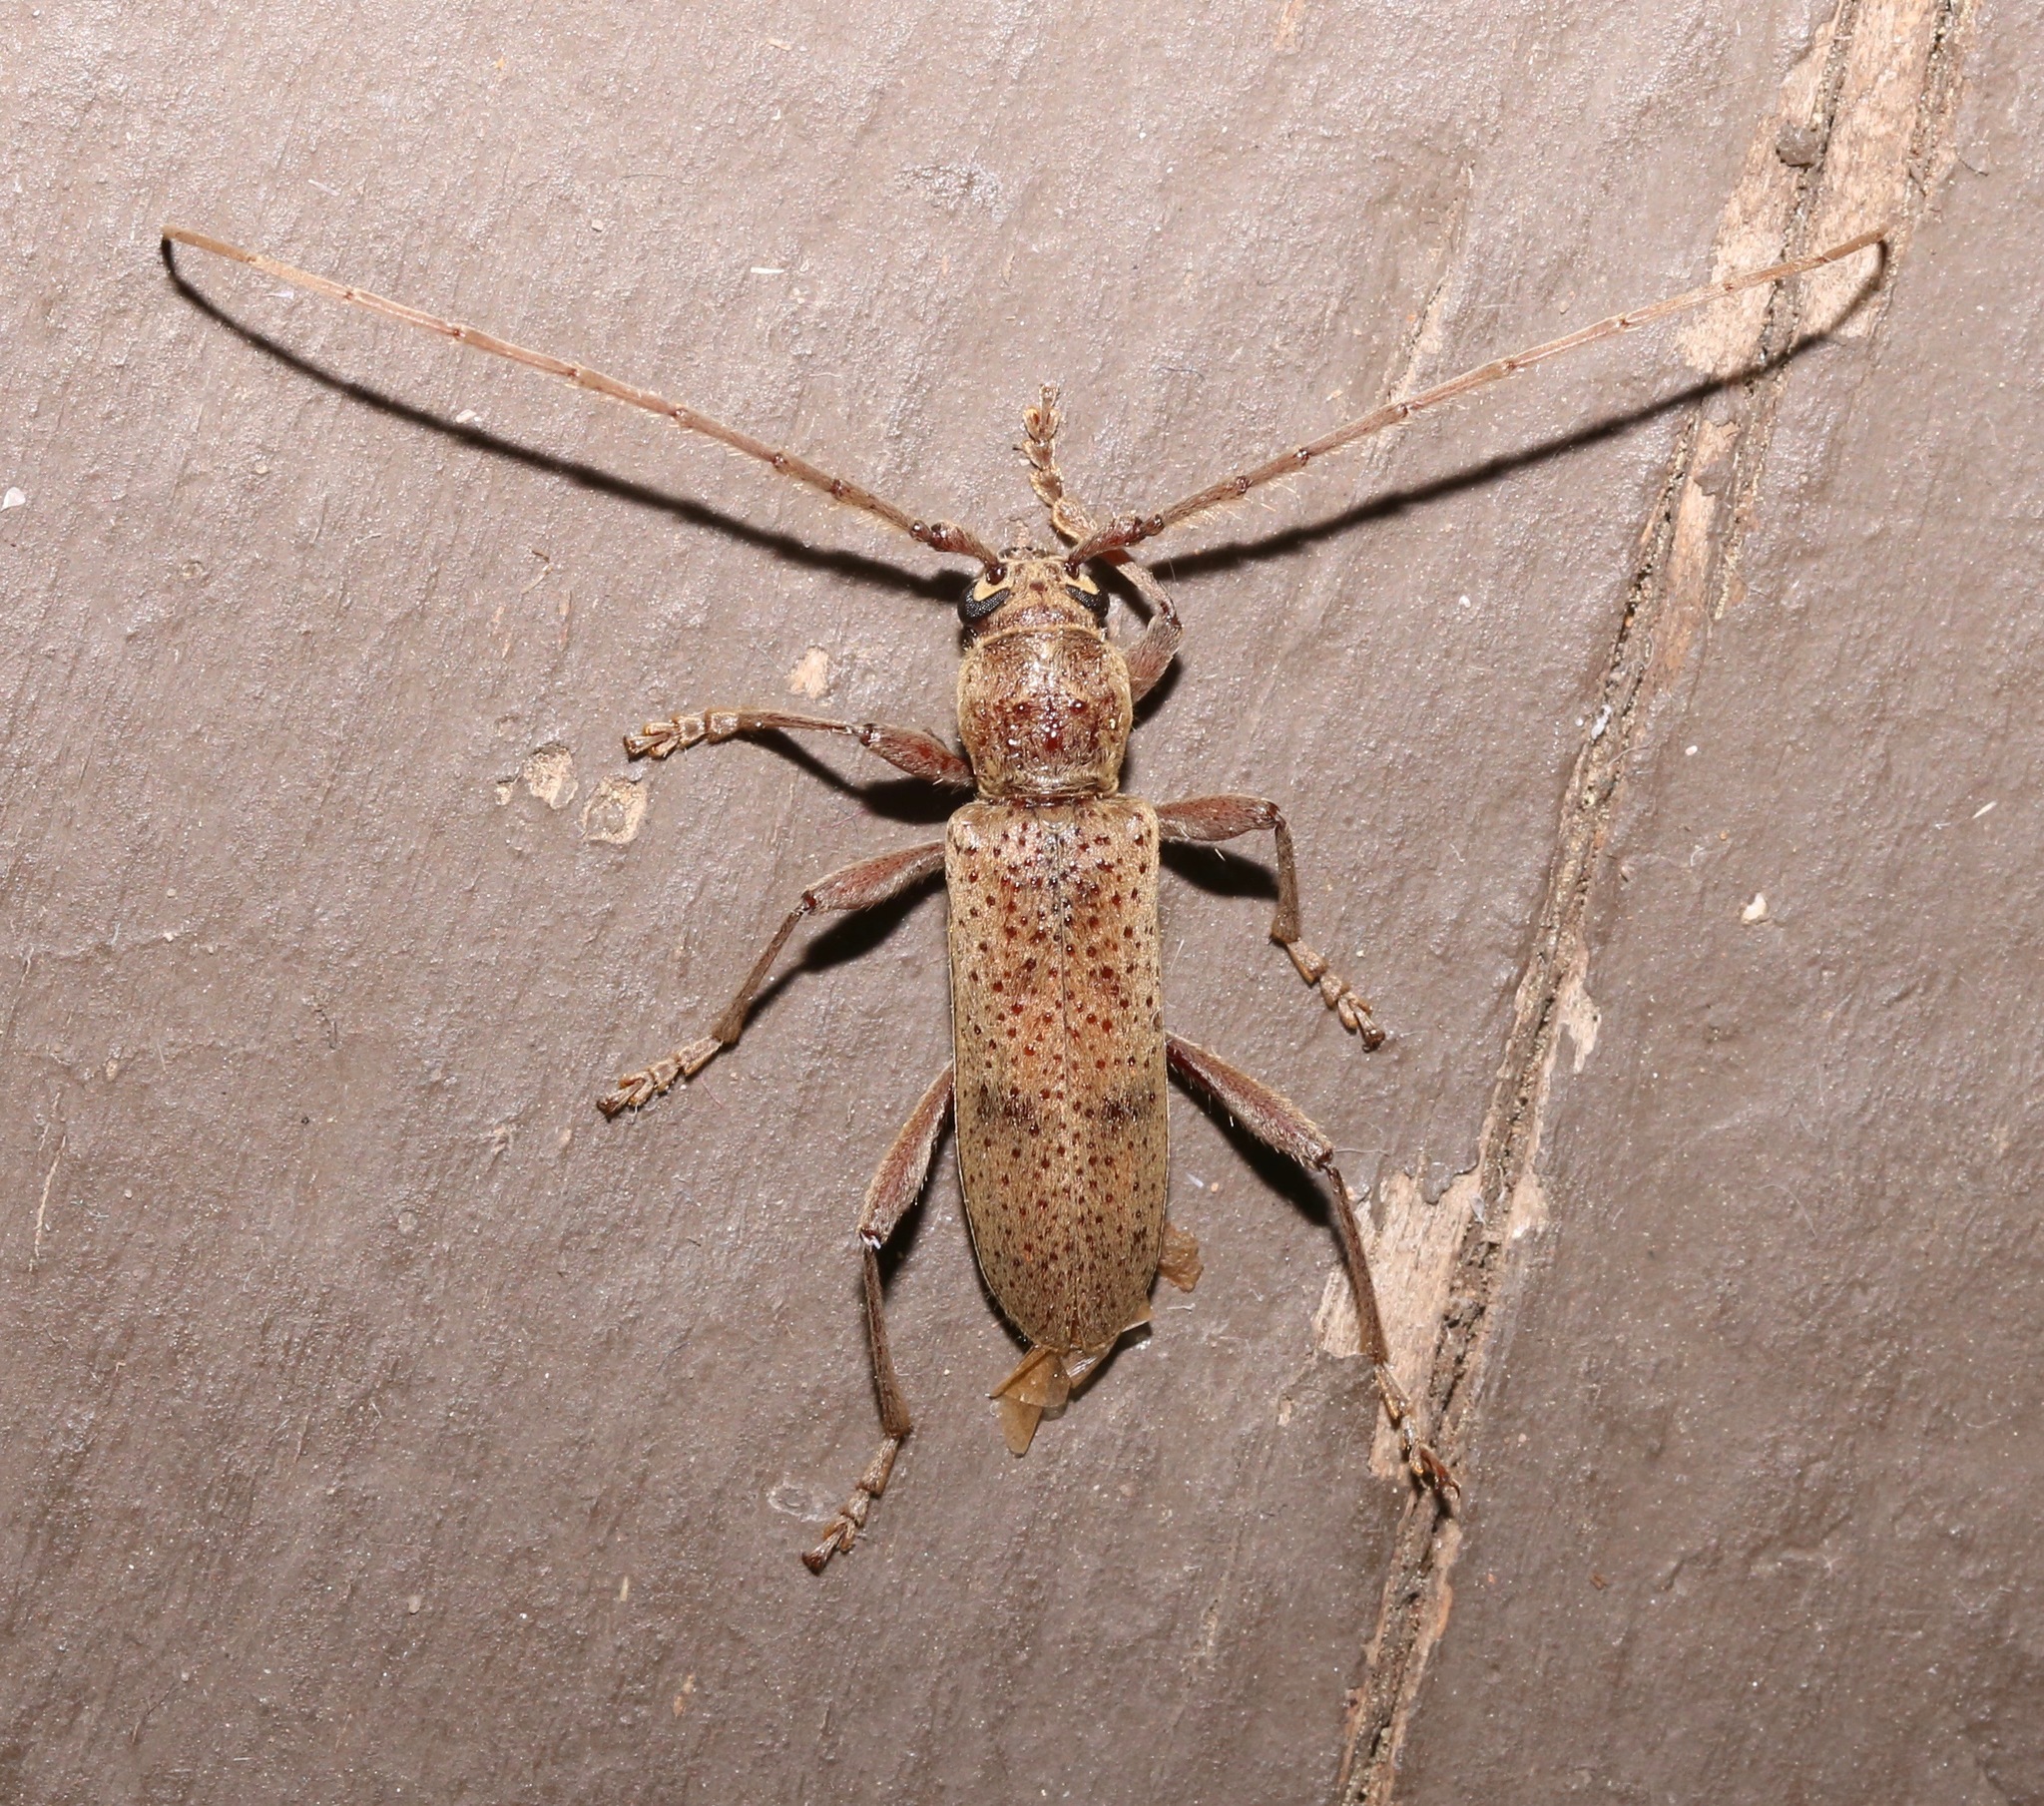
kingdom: Animalia
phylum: Arthropoda
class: Insecta
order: Coleoptera
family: Cerambycidae
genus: Brothylus
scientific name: Brothylus gemmulatus
